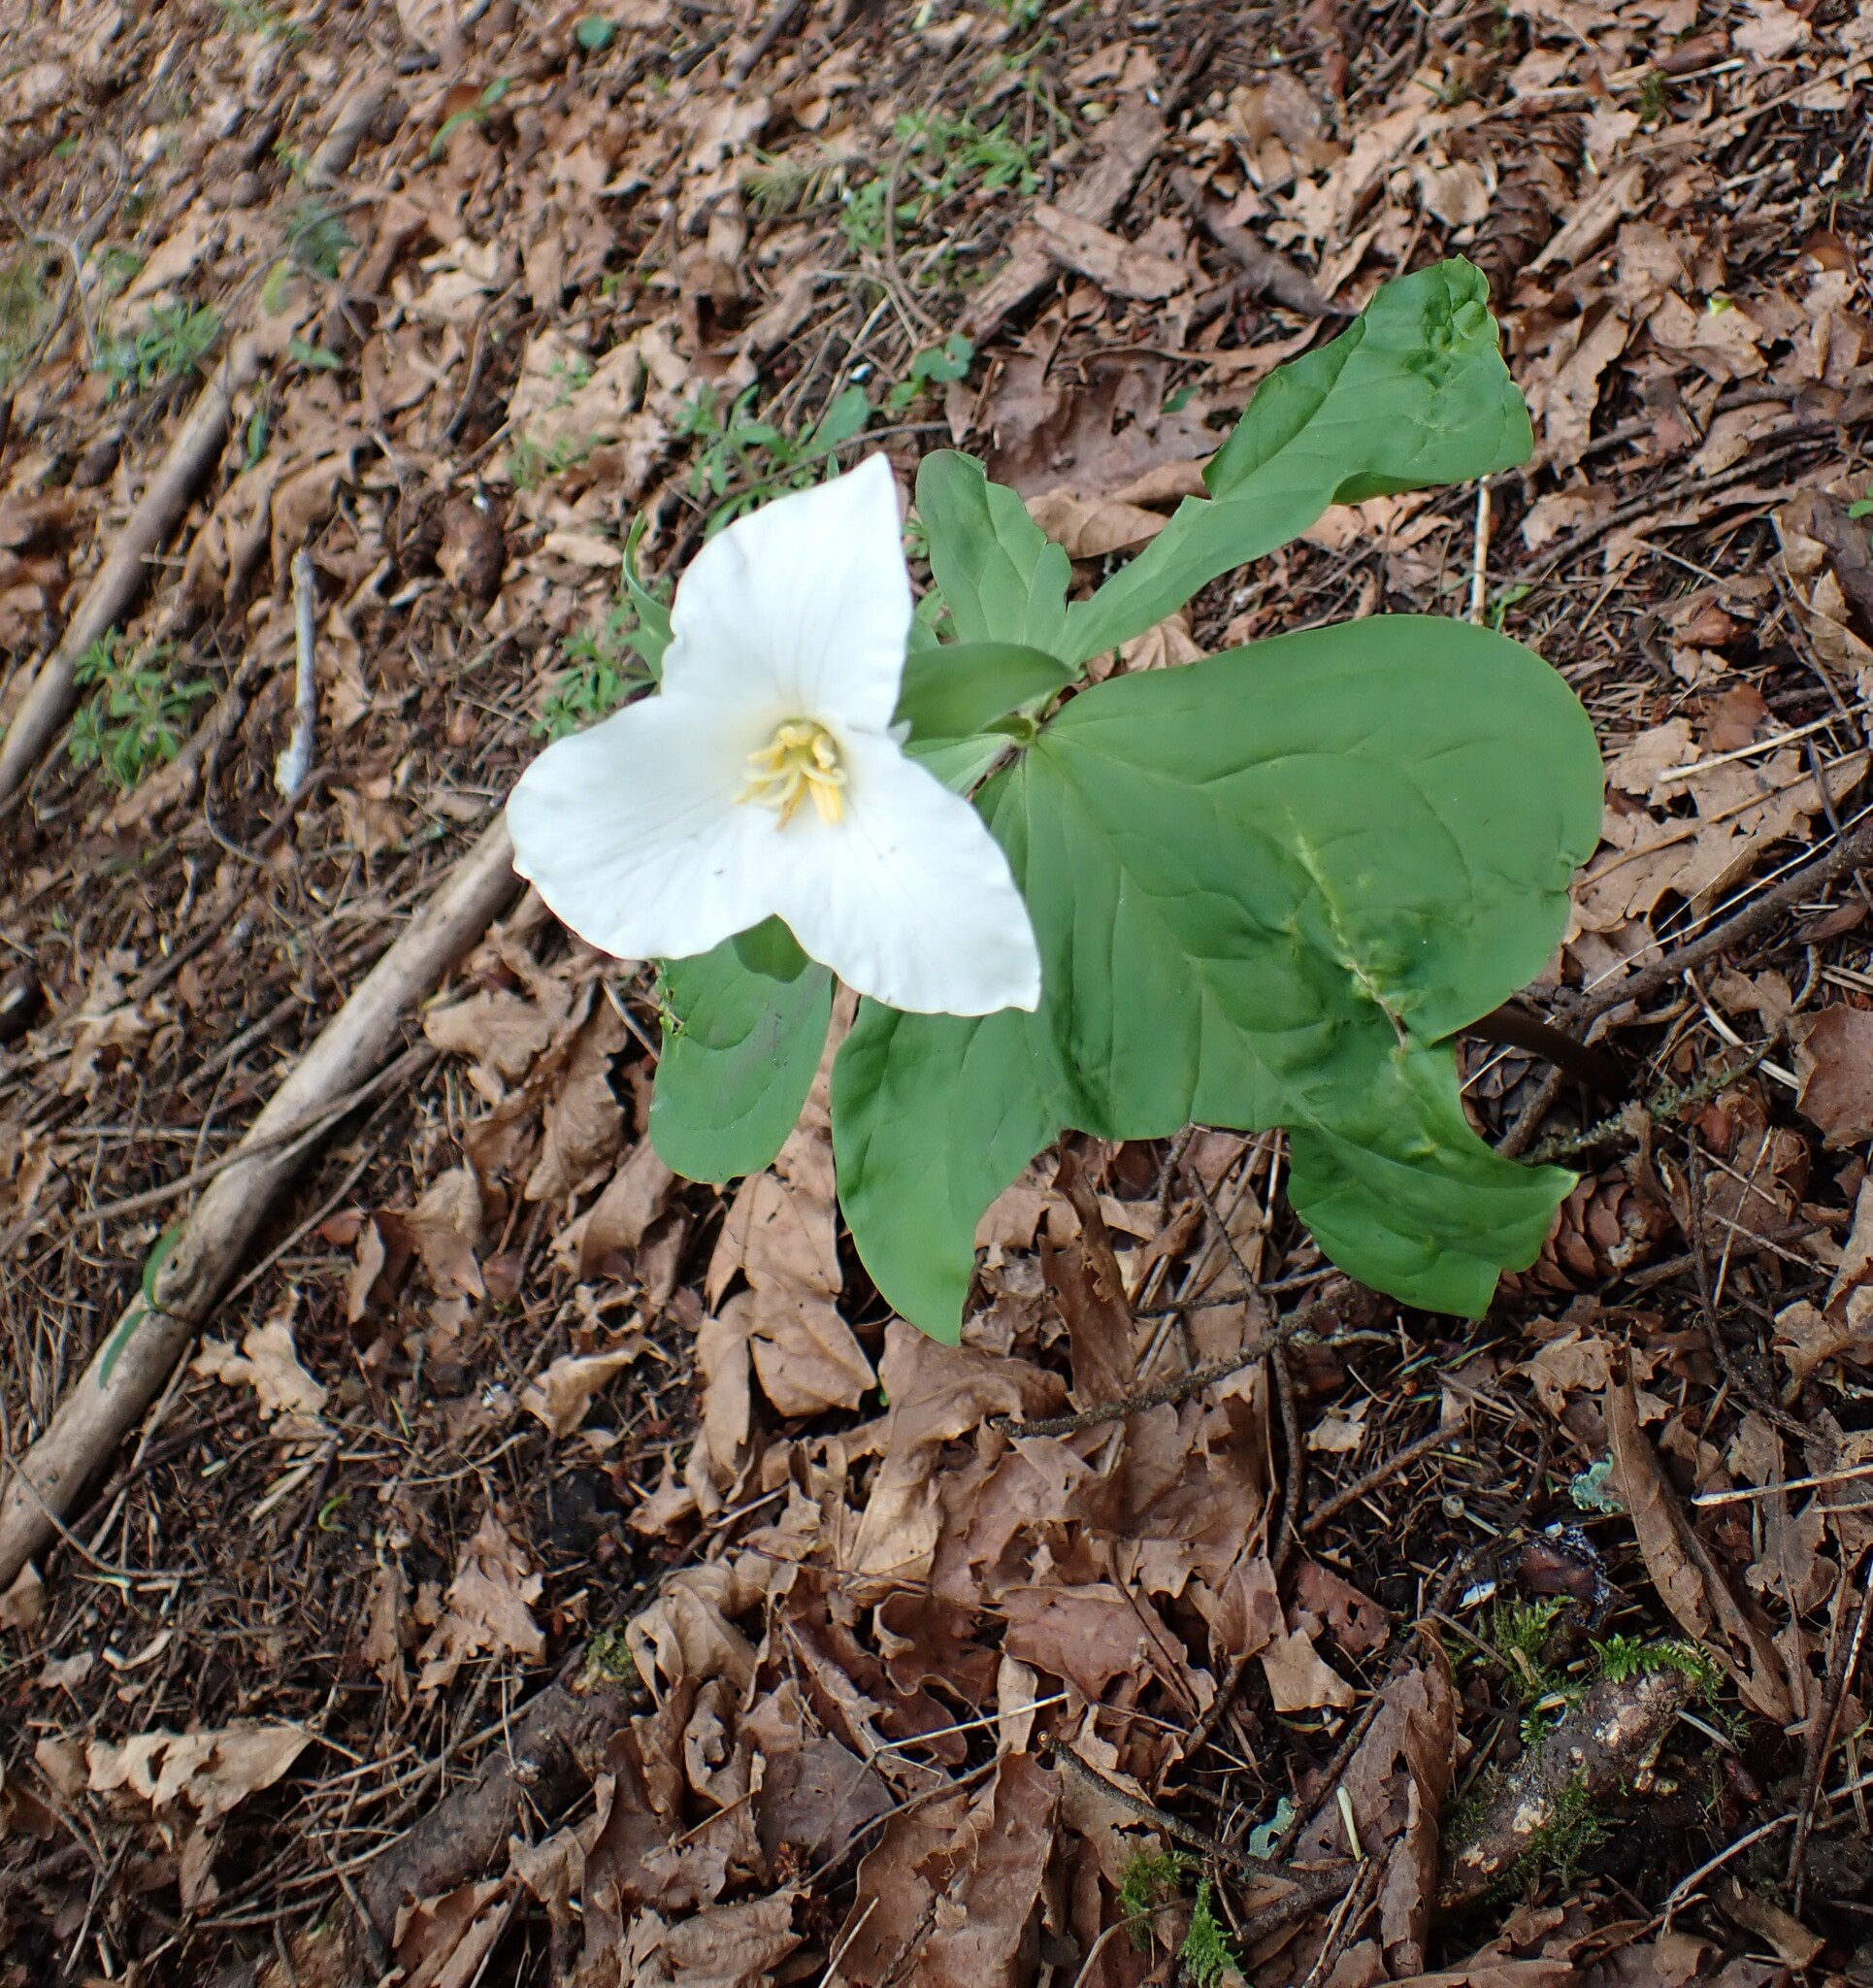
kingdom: Plantae
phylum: Tracheophyta
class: Liliopsida
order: Liliales
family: Melanthiaceae
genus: Trillium
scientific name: Trillium ovatum
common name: Pacific trillium
